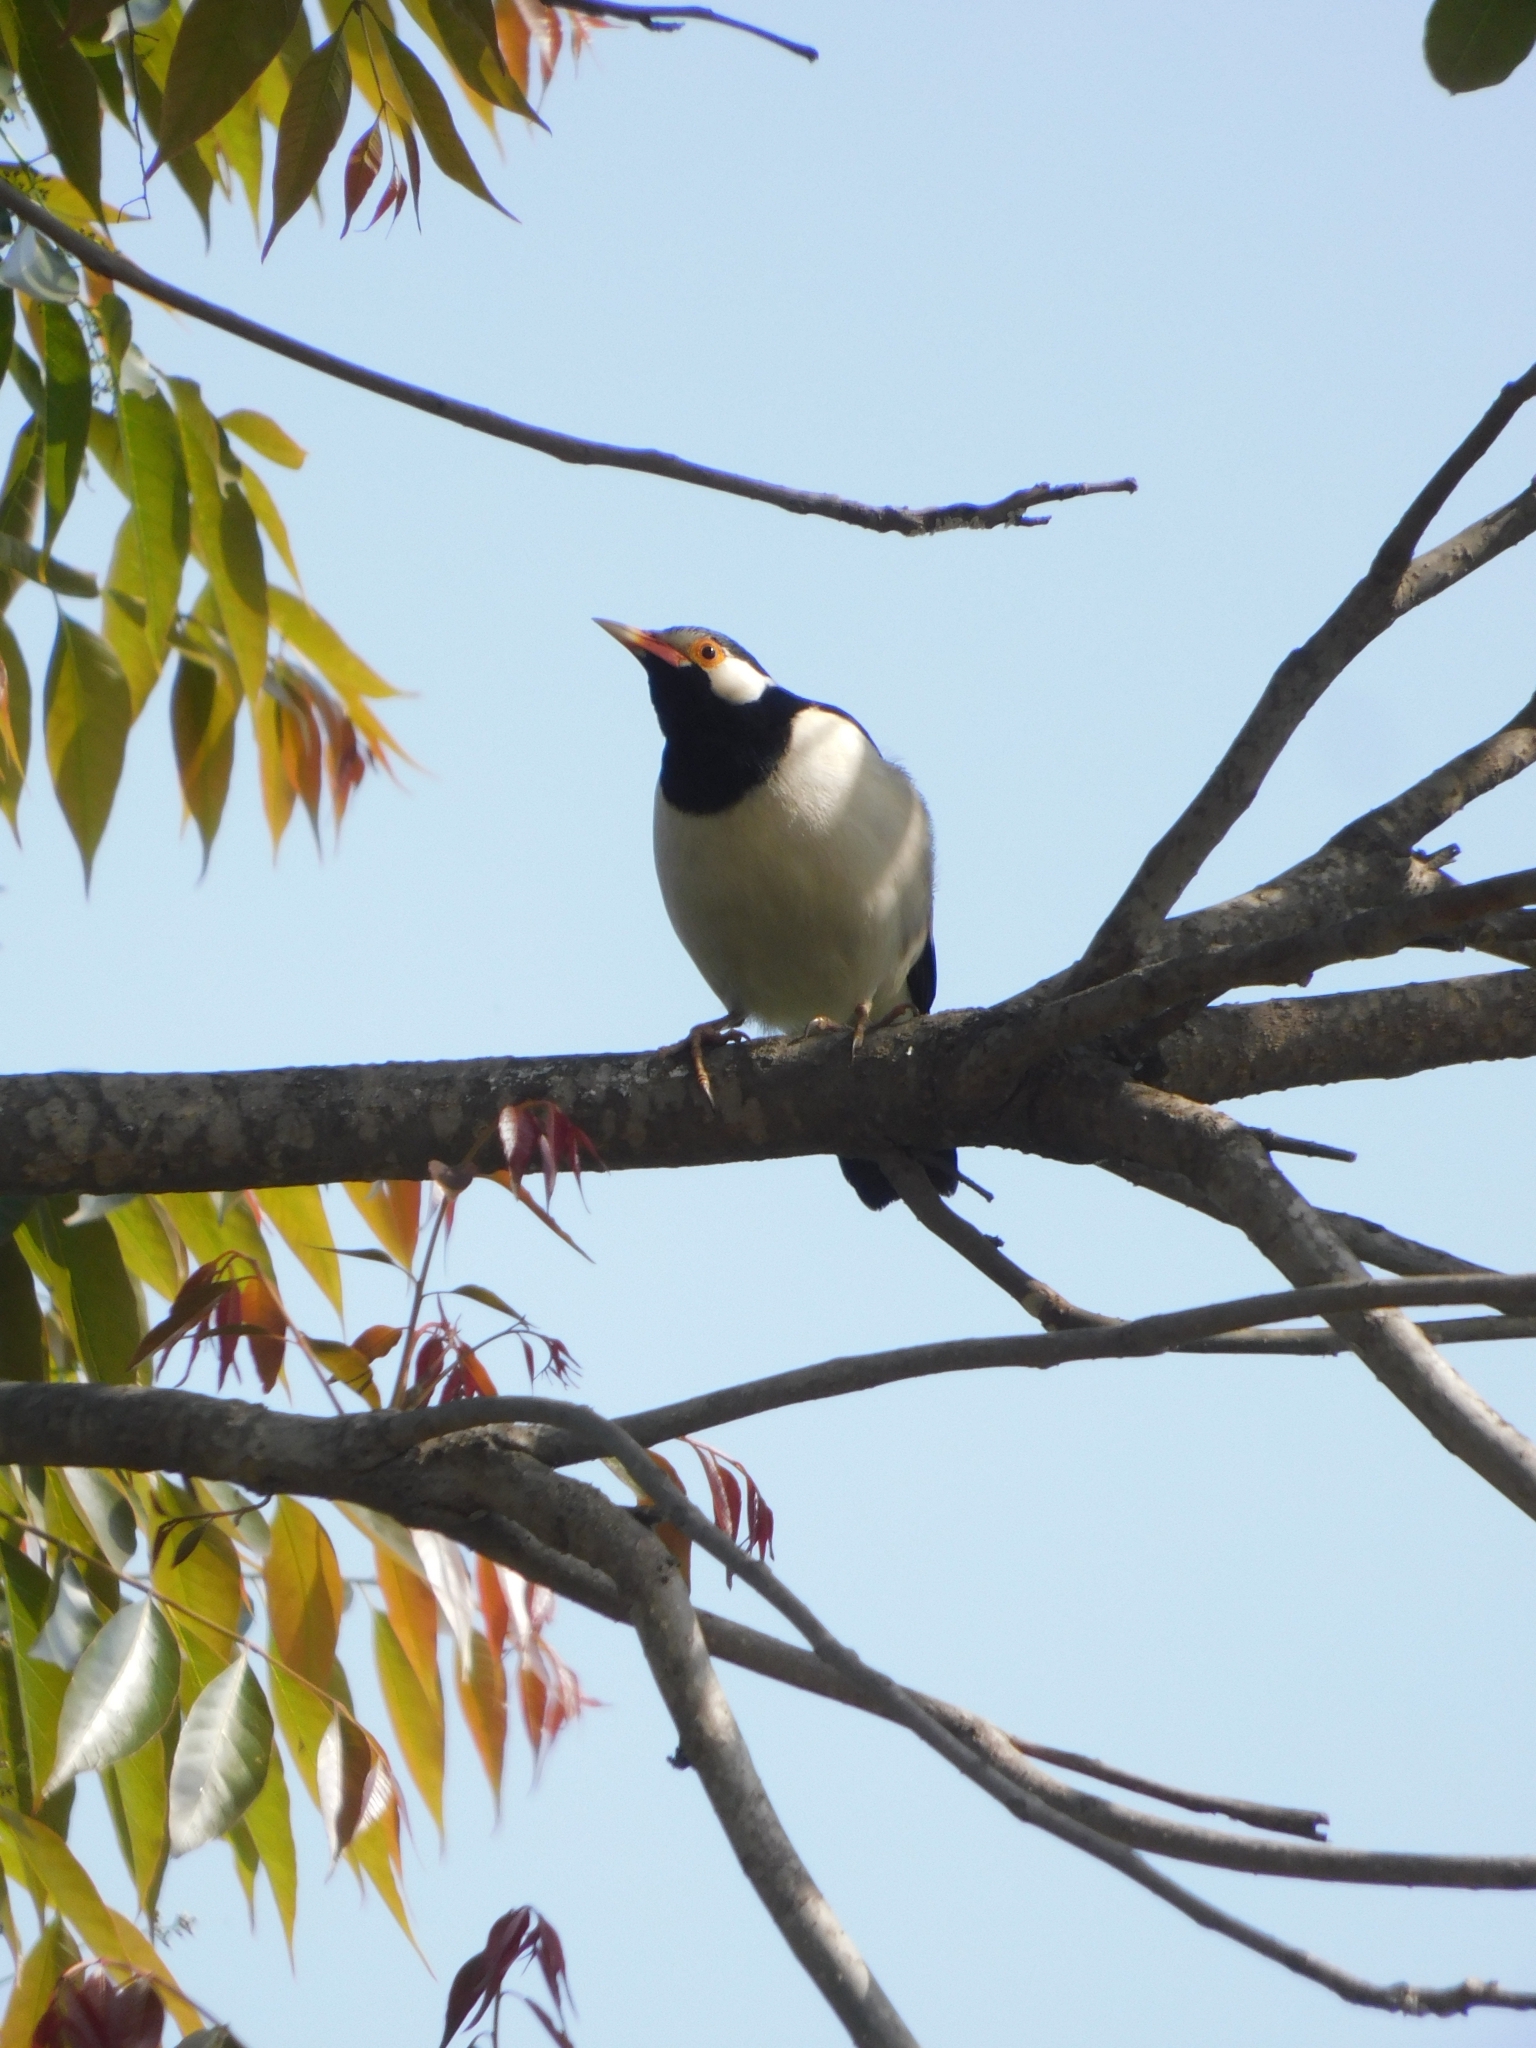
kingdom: Animalia
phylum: Chordata
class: Aves
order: Passeriformes
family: Sturnidae
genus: Gracupica
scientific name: Gracupica contra
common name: Pied myna
